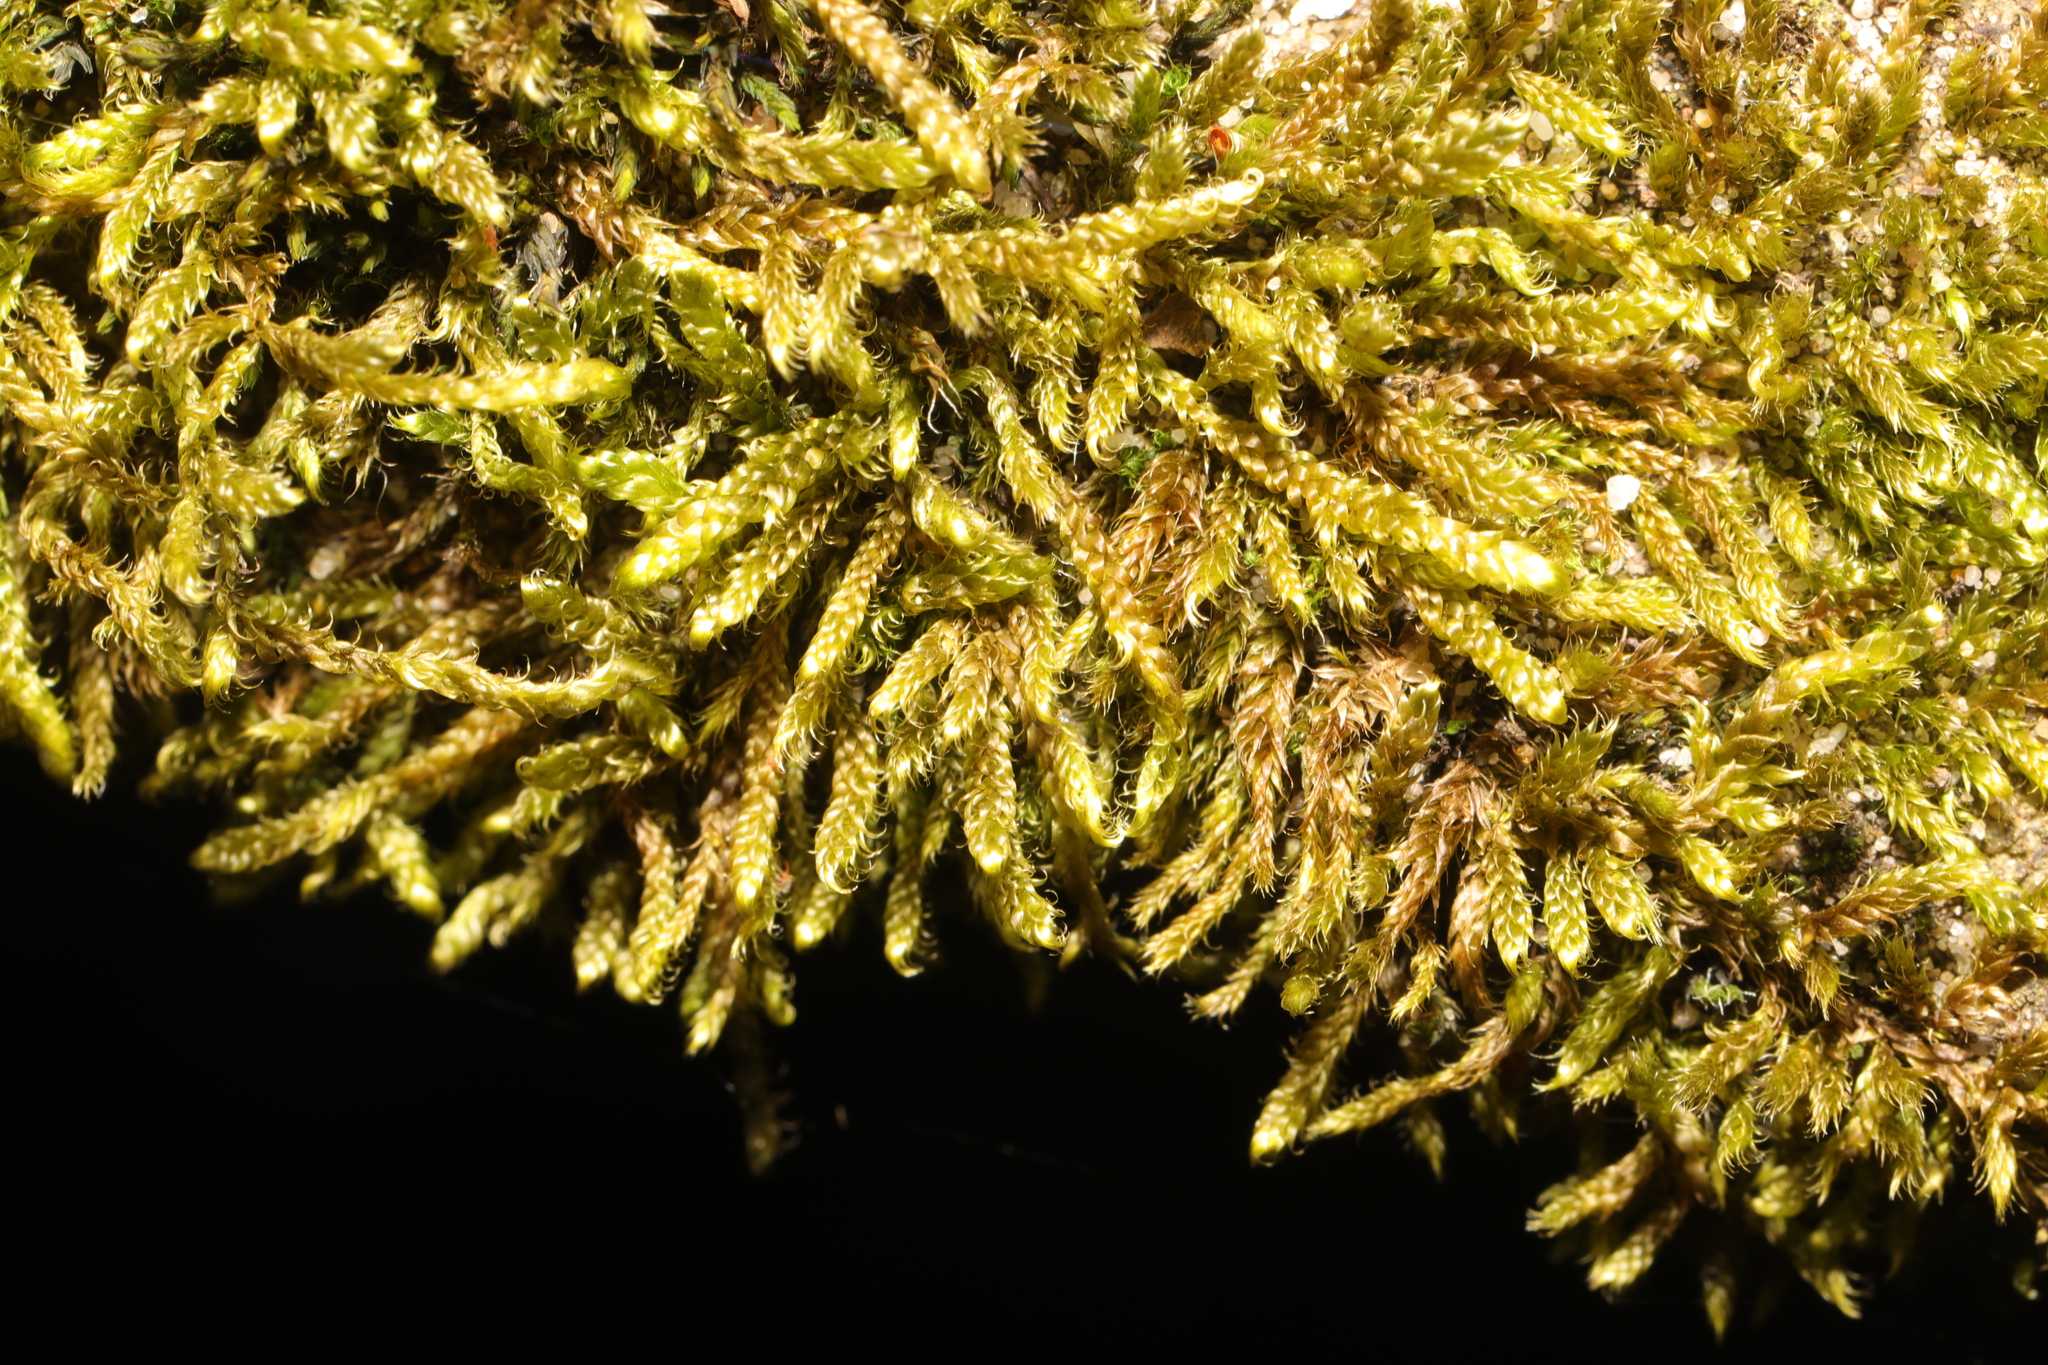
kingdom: Plantae
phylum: Bryophyta
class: Bryopsida
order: Hypnales
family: Hypnaceae
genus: Hypnum
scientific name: Hypnum cupressiforme
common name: Cypress-leaved plait-moss
